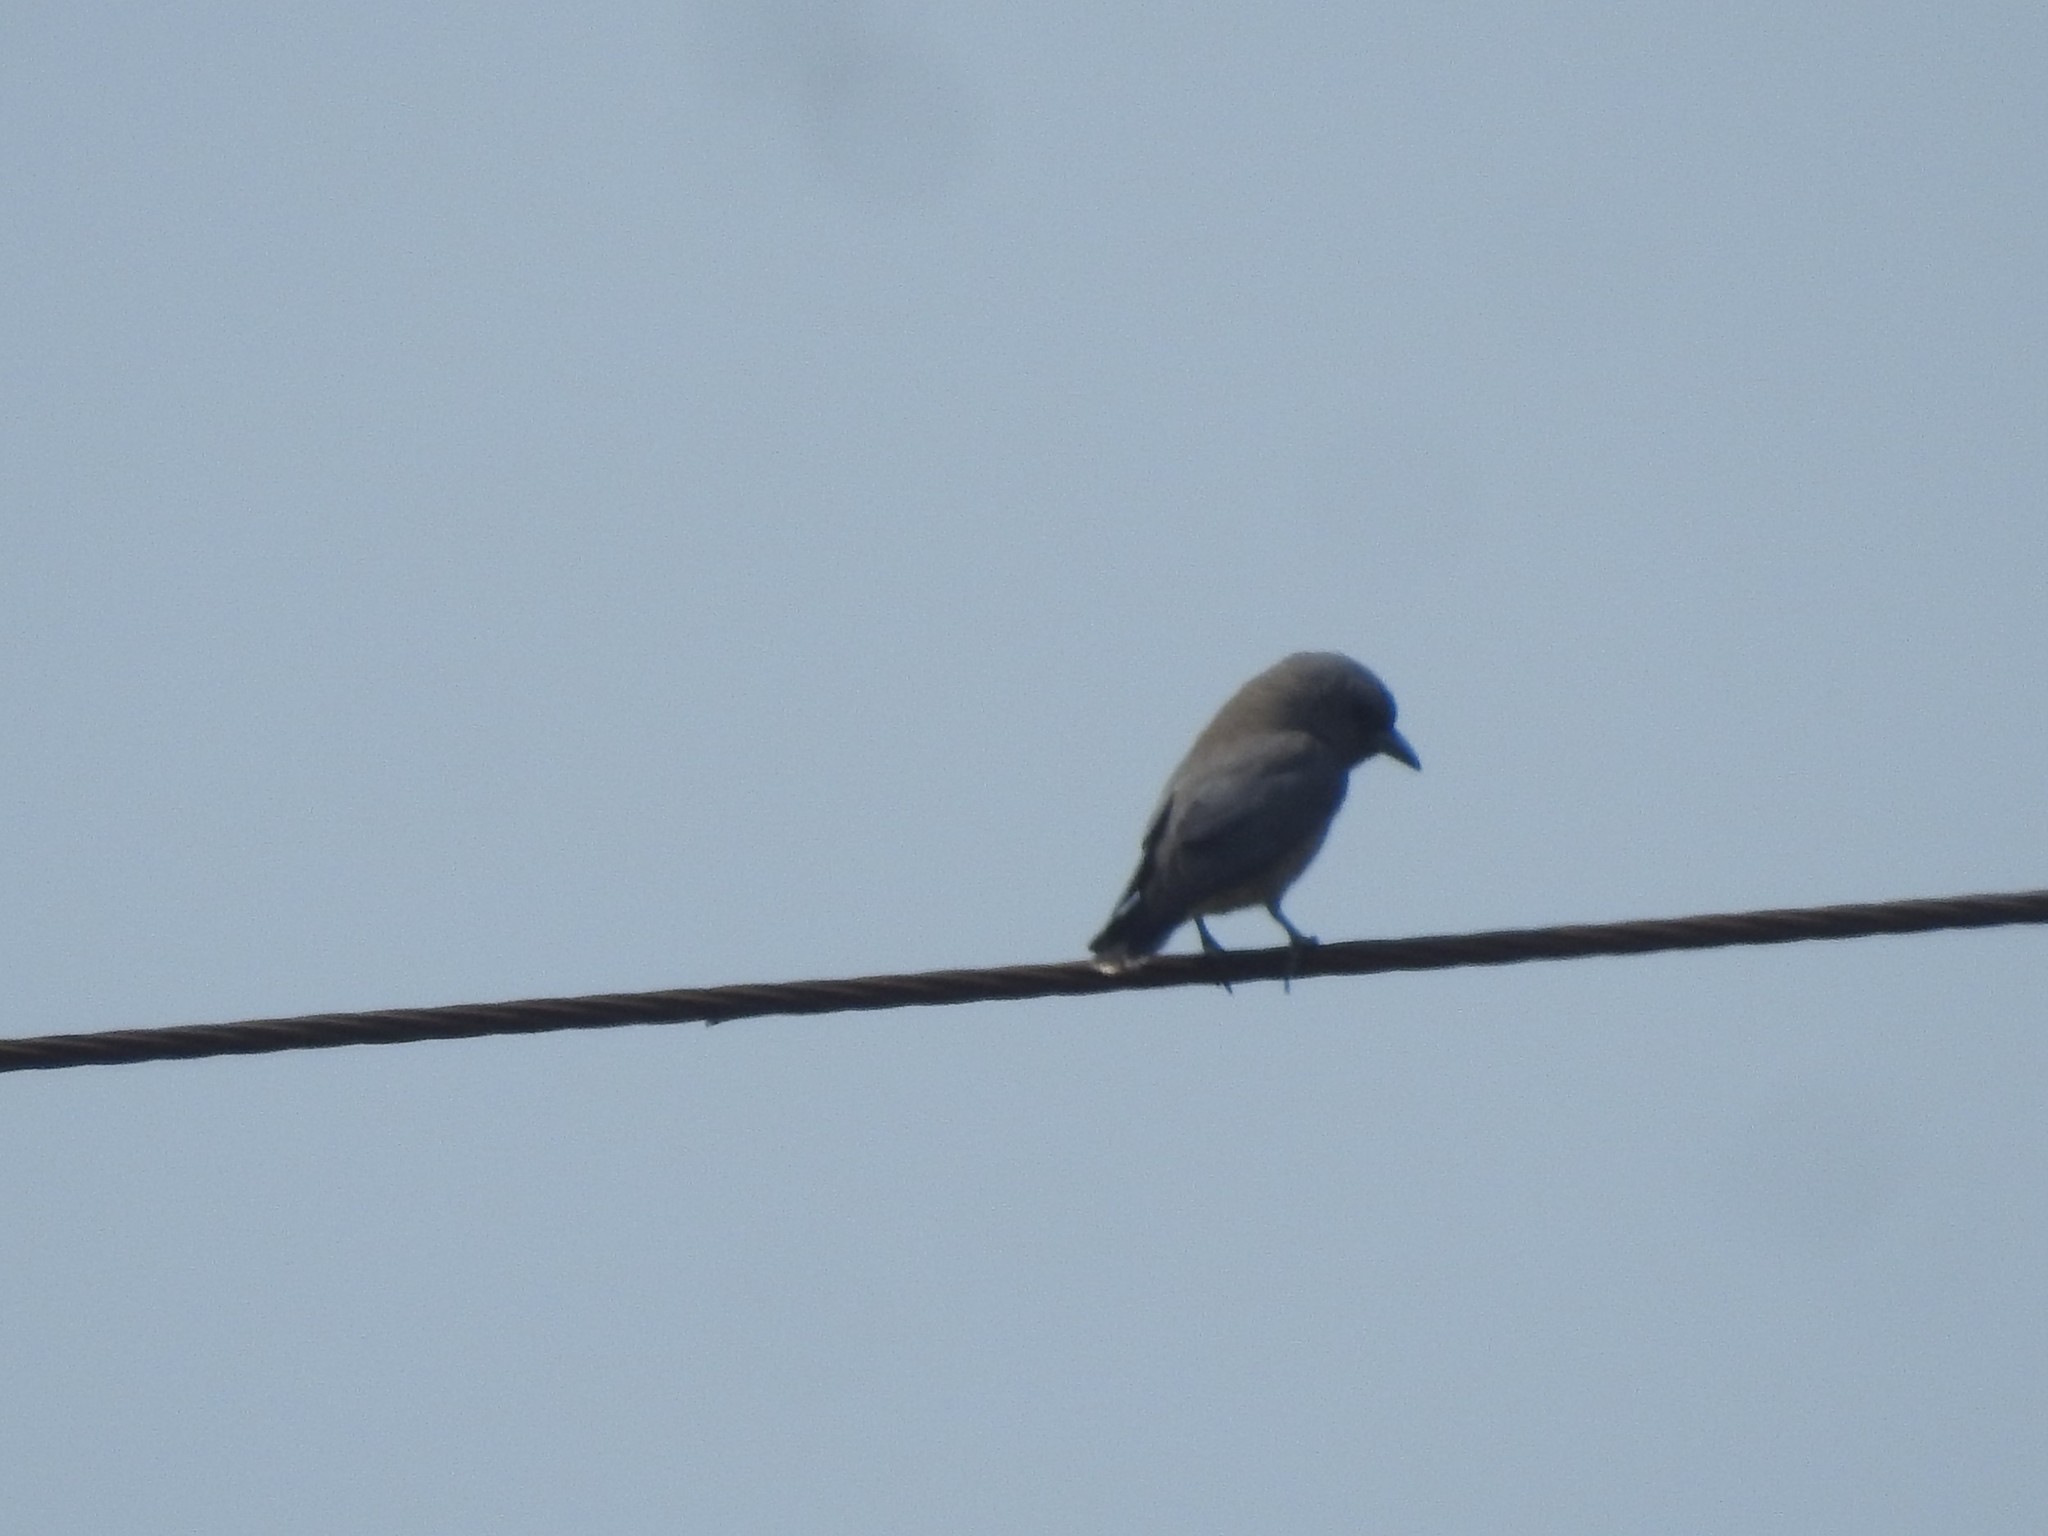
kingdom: Animalia
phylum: Chordata
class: Aves
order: Passeriformes
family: Artamidae
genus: Artamus
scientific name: Artamus fuscus
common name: Ashy woodswallow
